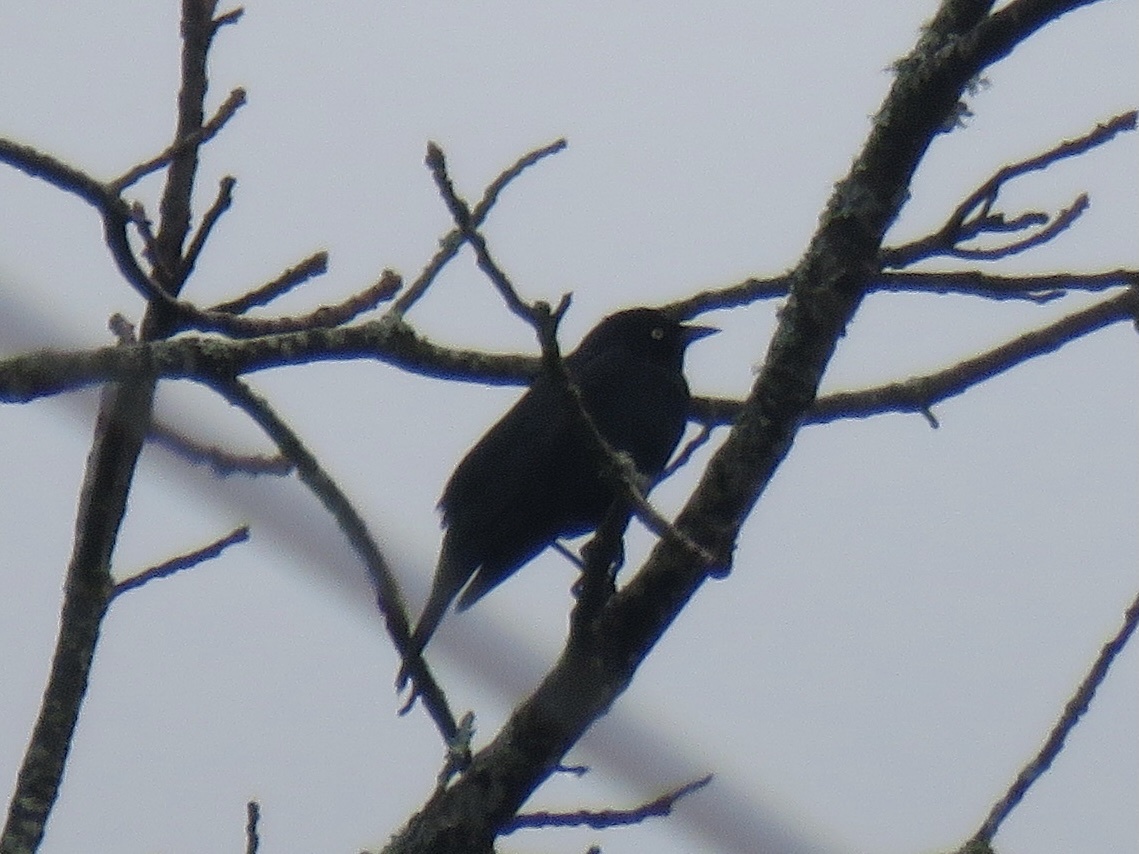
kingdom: Animalia
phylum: Chordata
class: Aves
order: Passeriformes
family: Icteridae
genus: Euphagus
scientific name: Euphagus cyanocephalus
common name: Brewer's blackbird
